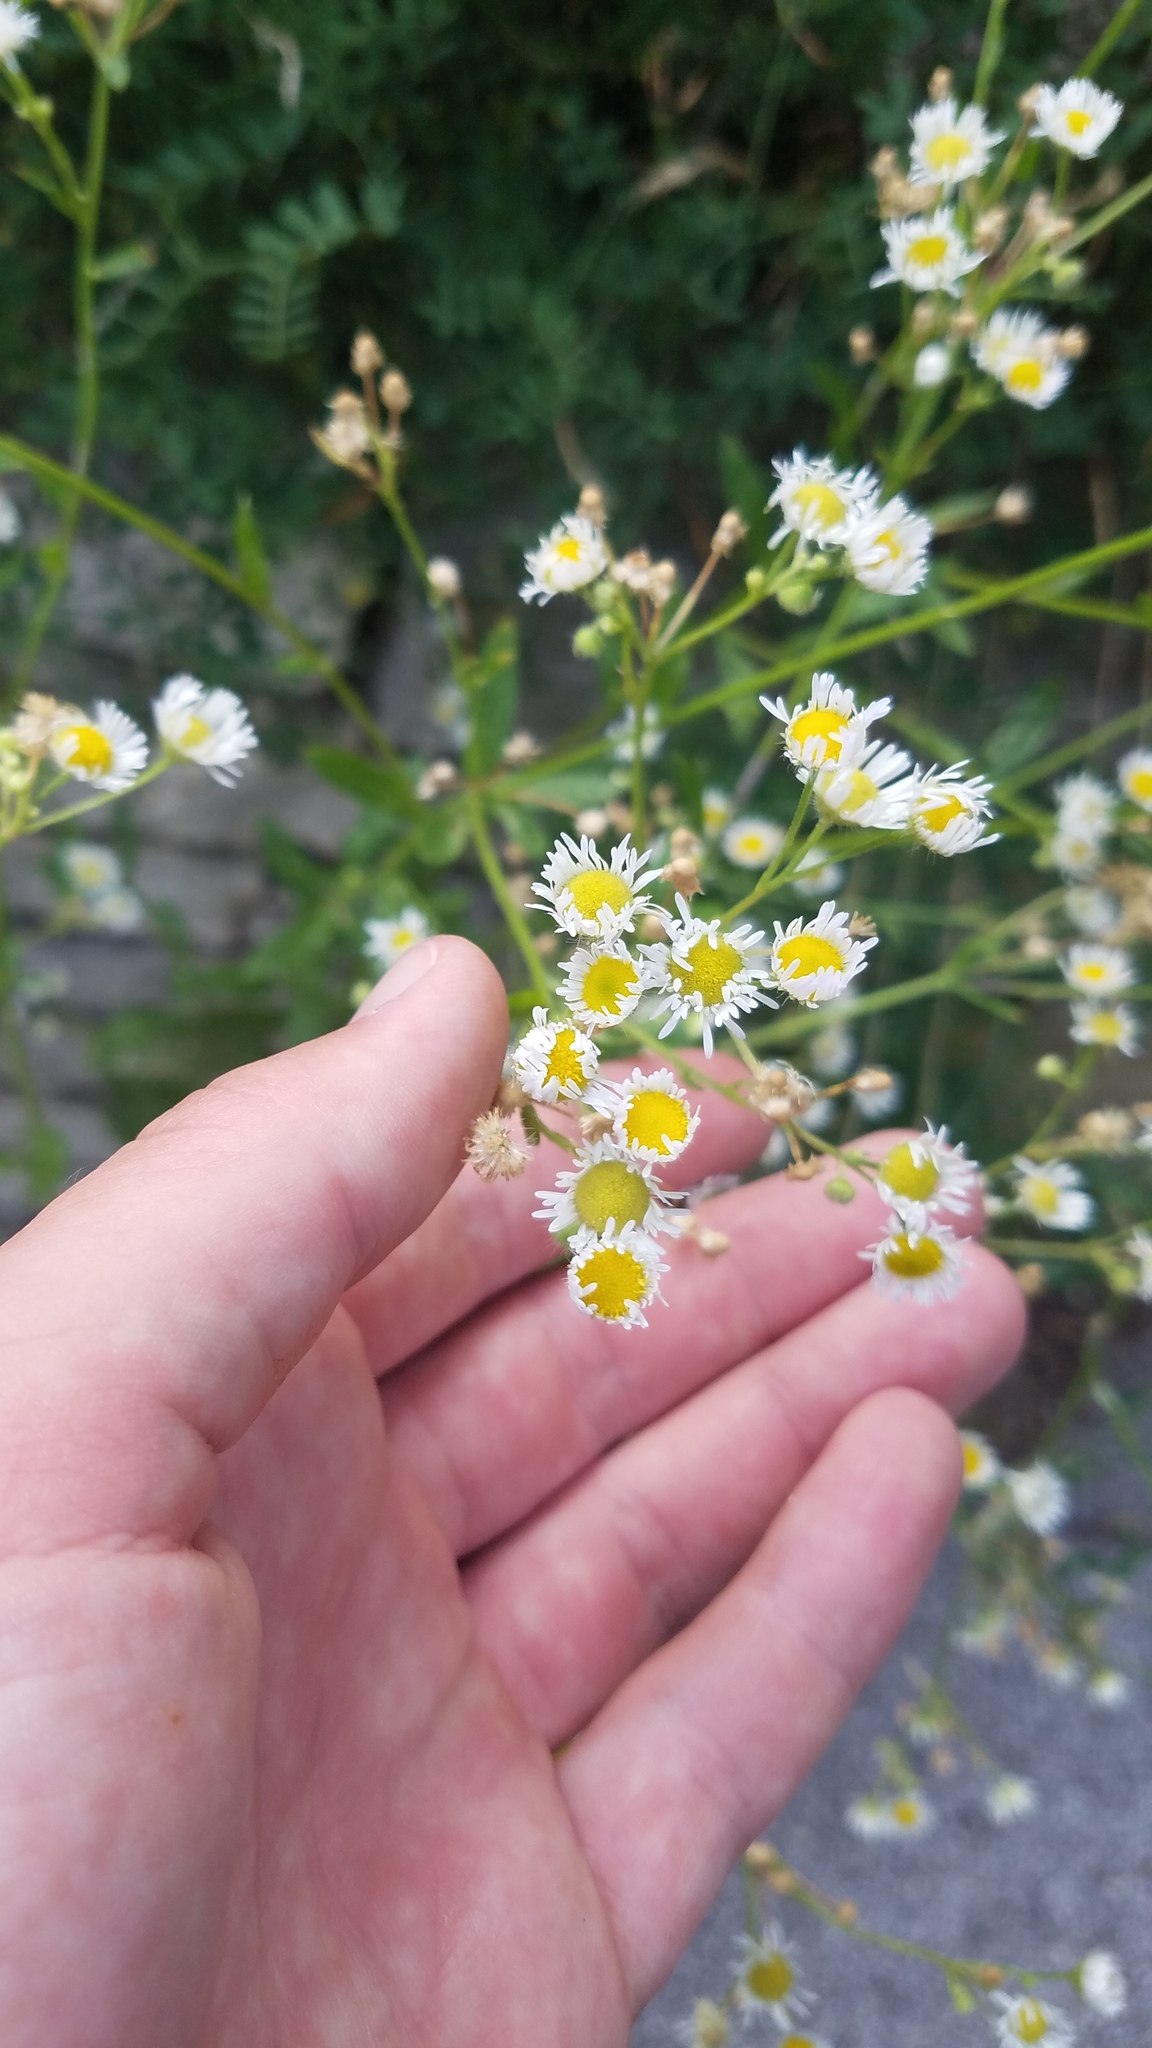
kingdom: Plantae
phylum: Tracheophyta
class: Magnoliopsida
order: Asterales
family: Asteraceae
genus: Erigeron
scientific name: Erigeron strigosus
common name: Common eastern fleabane
